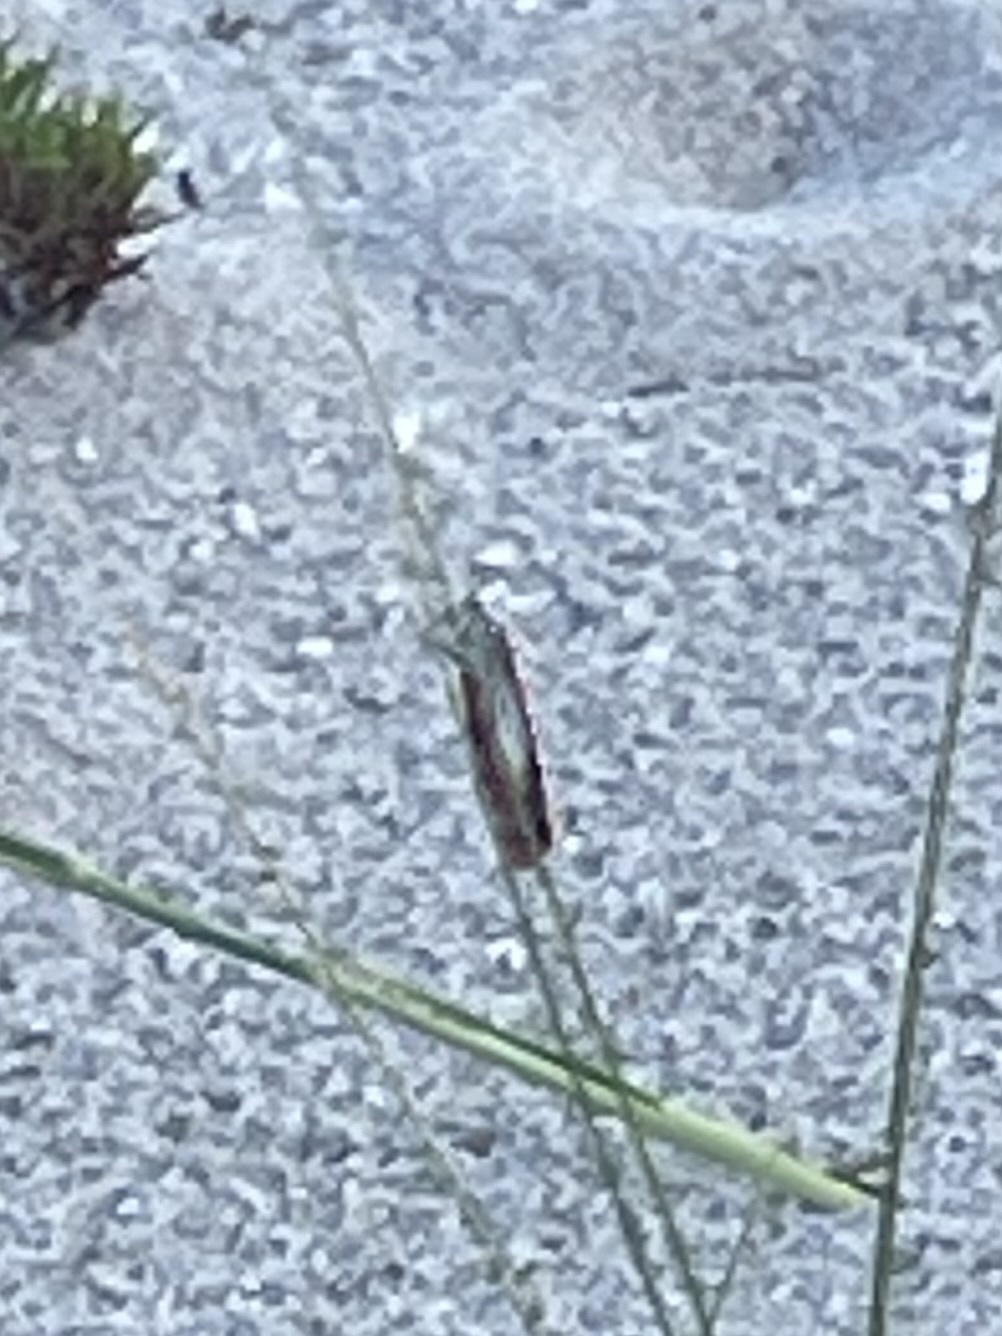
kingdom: Animalia
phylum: Arthropoda
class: Insecta
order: Lepidoptera
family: Erebidae
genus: Utetheisa
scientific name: Utetheisa ornatrix
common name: Beautiful utetheisa
